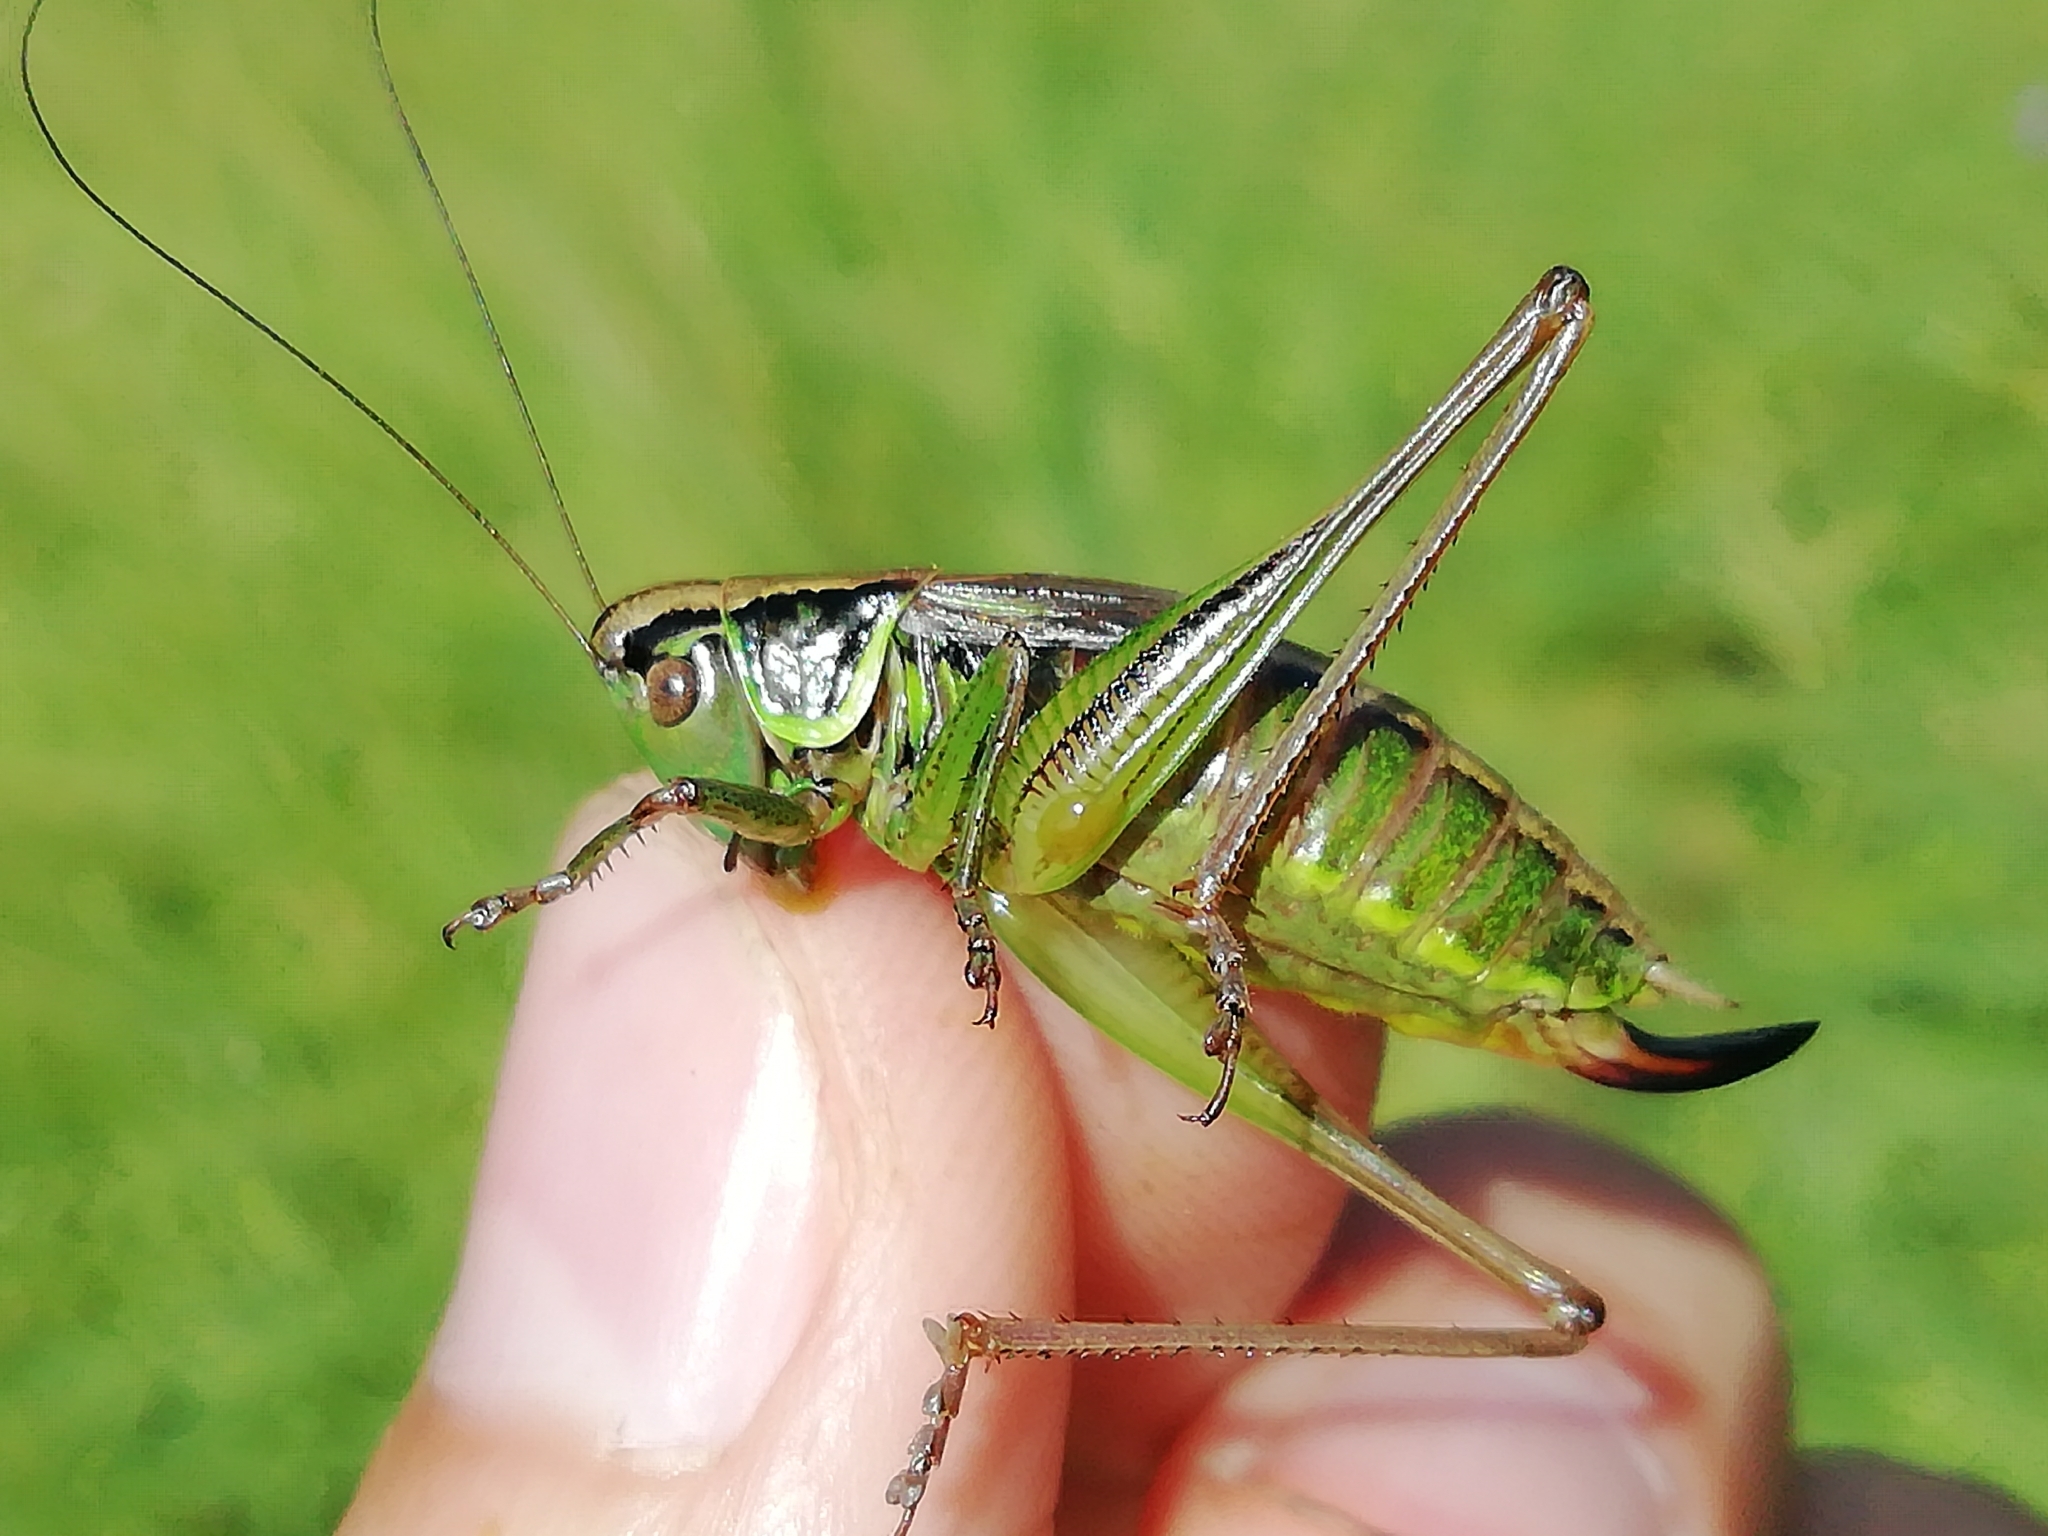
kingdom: Animalia
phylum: Arthropoda
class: Insecta
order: Orthoptera
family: Tettigoniidae
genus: Roeseliana
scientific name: Roeseliana roeselii
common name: Roesel's bush cricket
